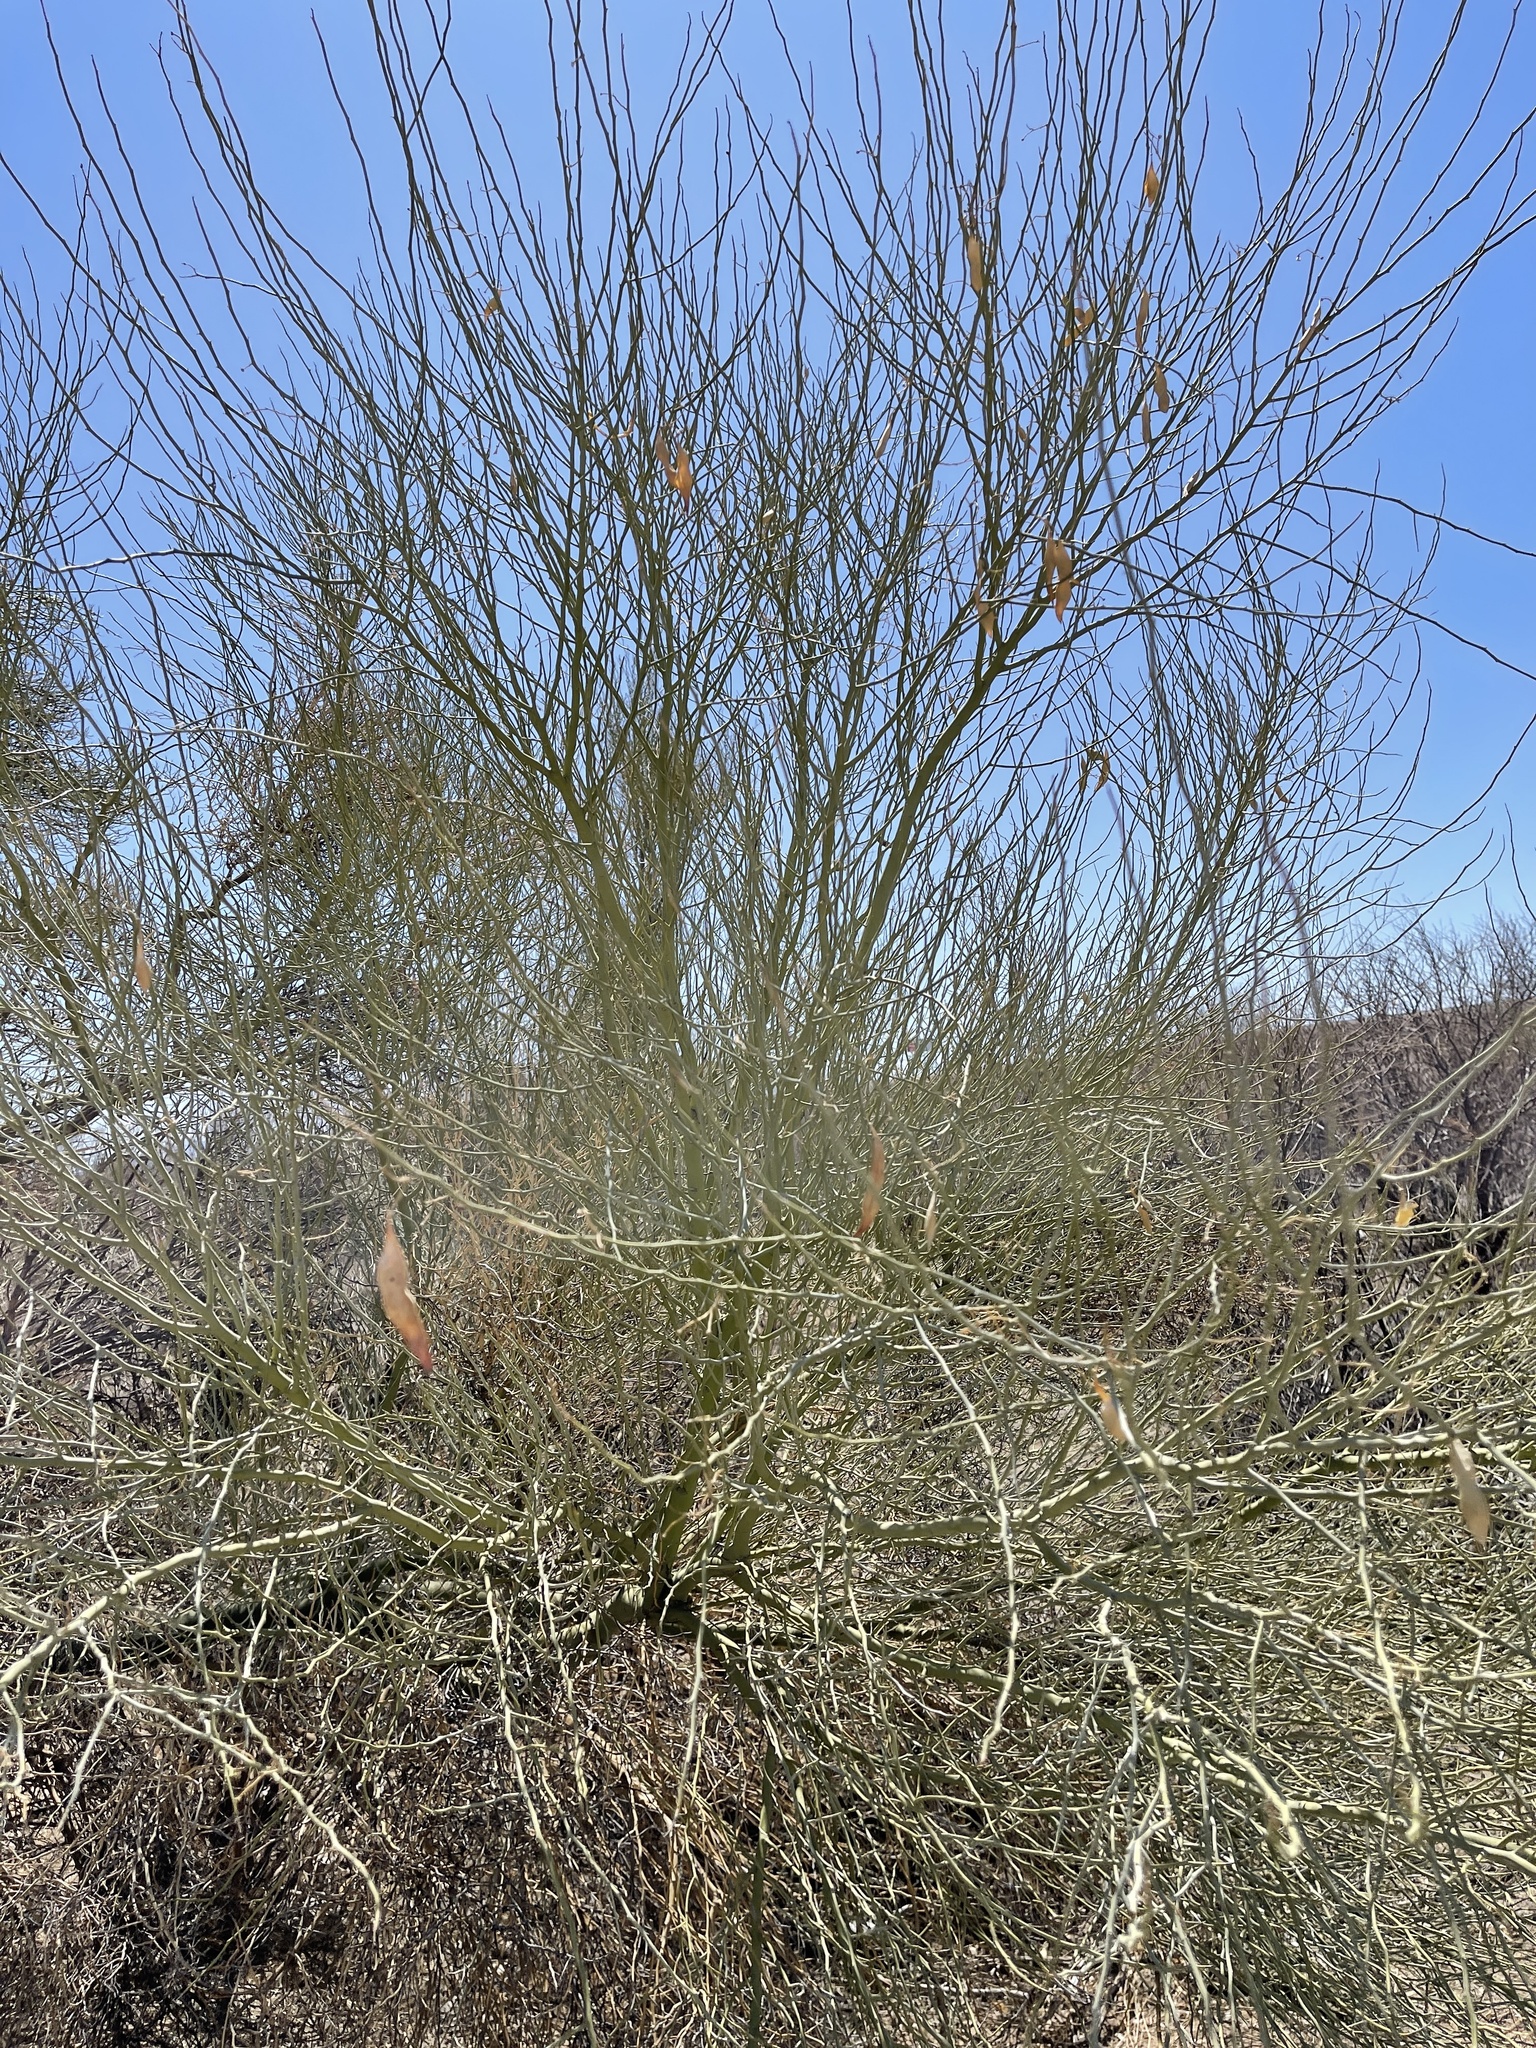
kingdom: Plantae
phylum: Tracheophyta
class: Magnoliopsida
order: Fabales
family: Fabaceae
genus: Parkinsonia
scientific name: Parkinsonia florida
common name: Blue paloverde
